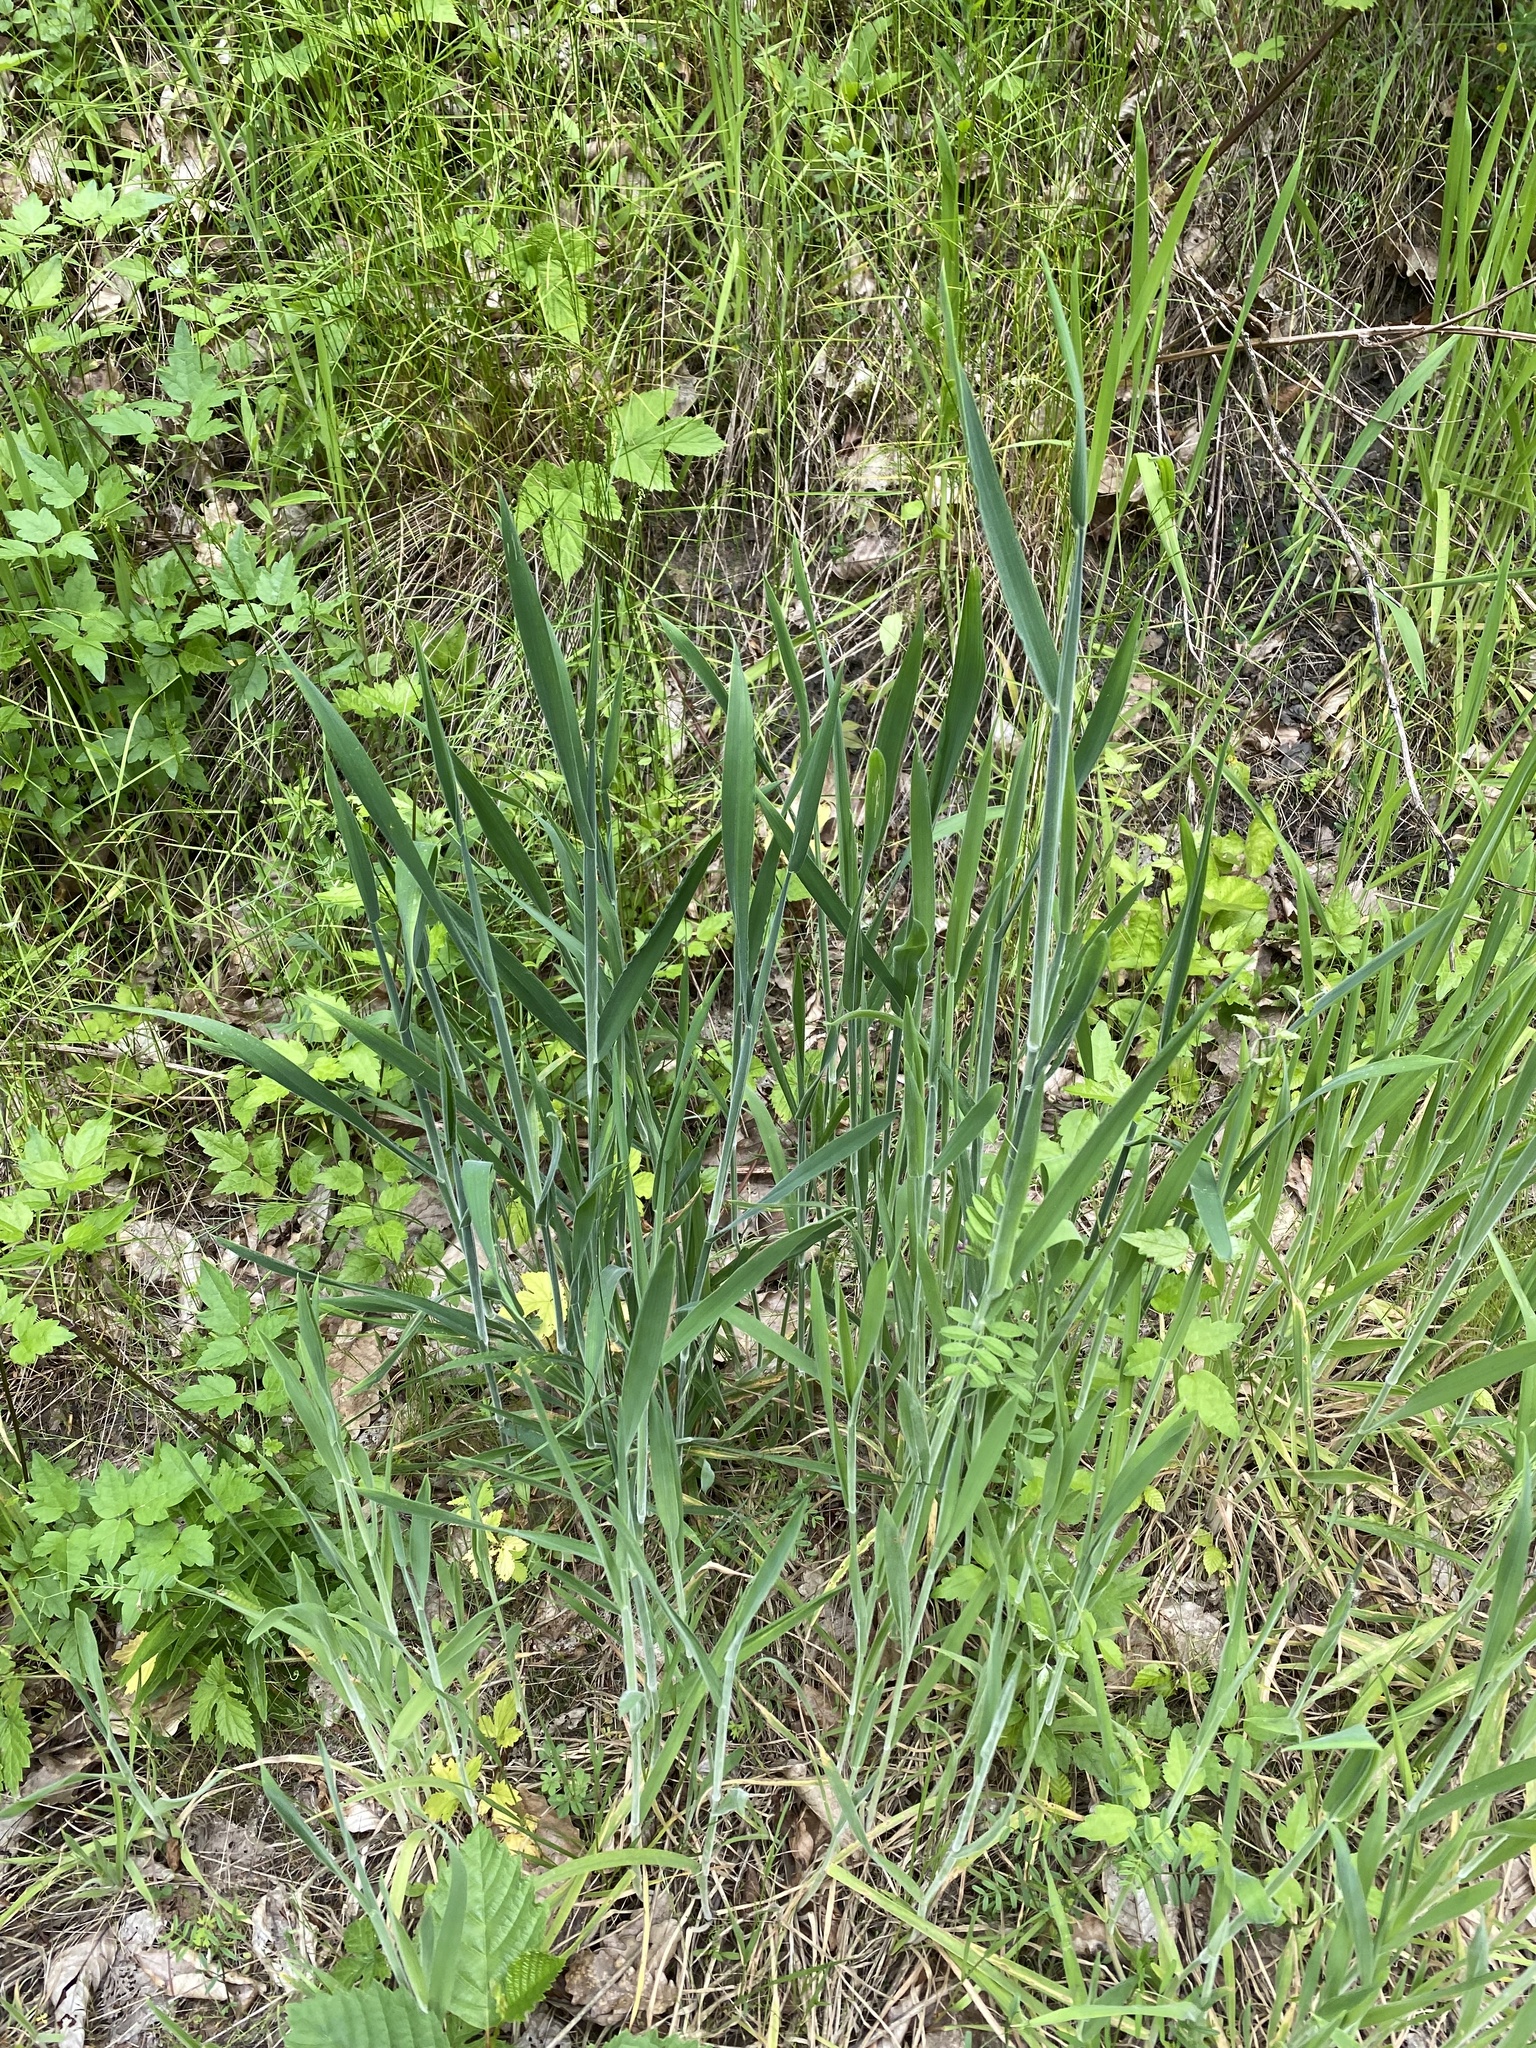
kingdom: Plantae
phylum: Tracheophyta
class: Liliopsida
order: Poales
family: Poaceae
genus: Phragmites
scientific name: Phragmites australis
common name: Common reed
